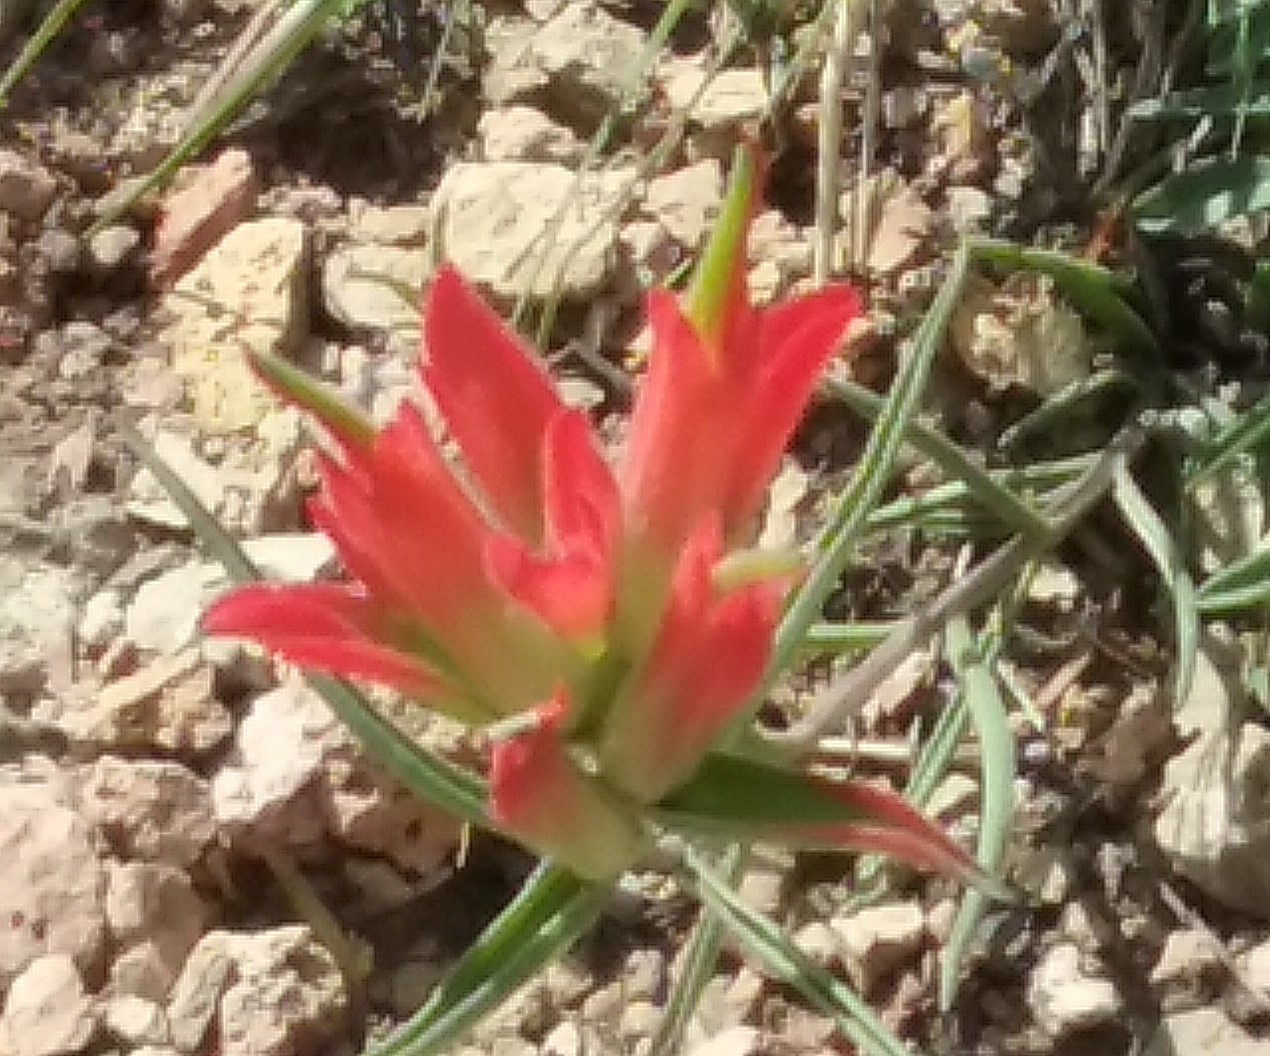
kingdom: Plantae
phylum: Tracheophyta
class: Magnoliopsida
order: Lamiales
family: Orobanchaceae
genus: Castilleja
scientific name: Castilleja integra
